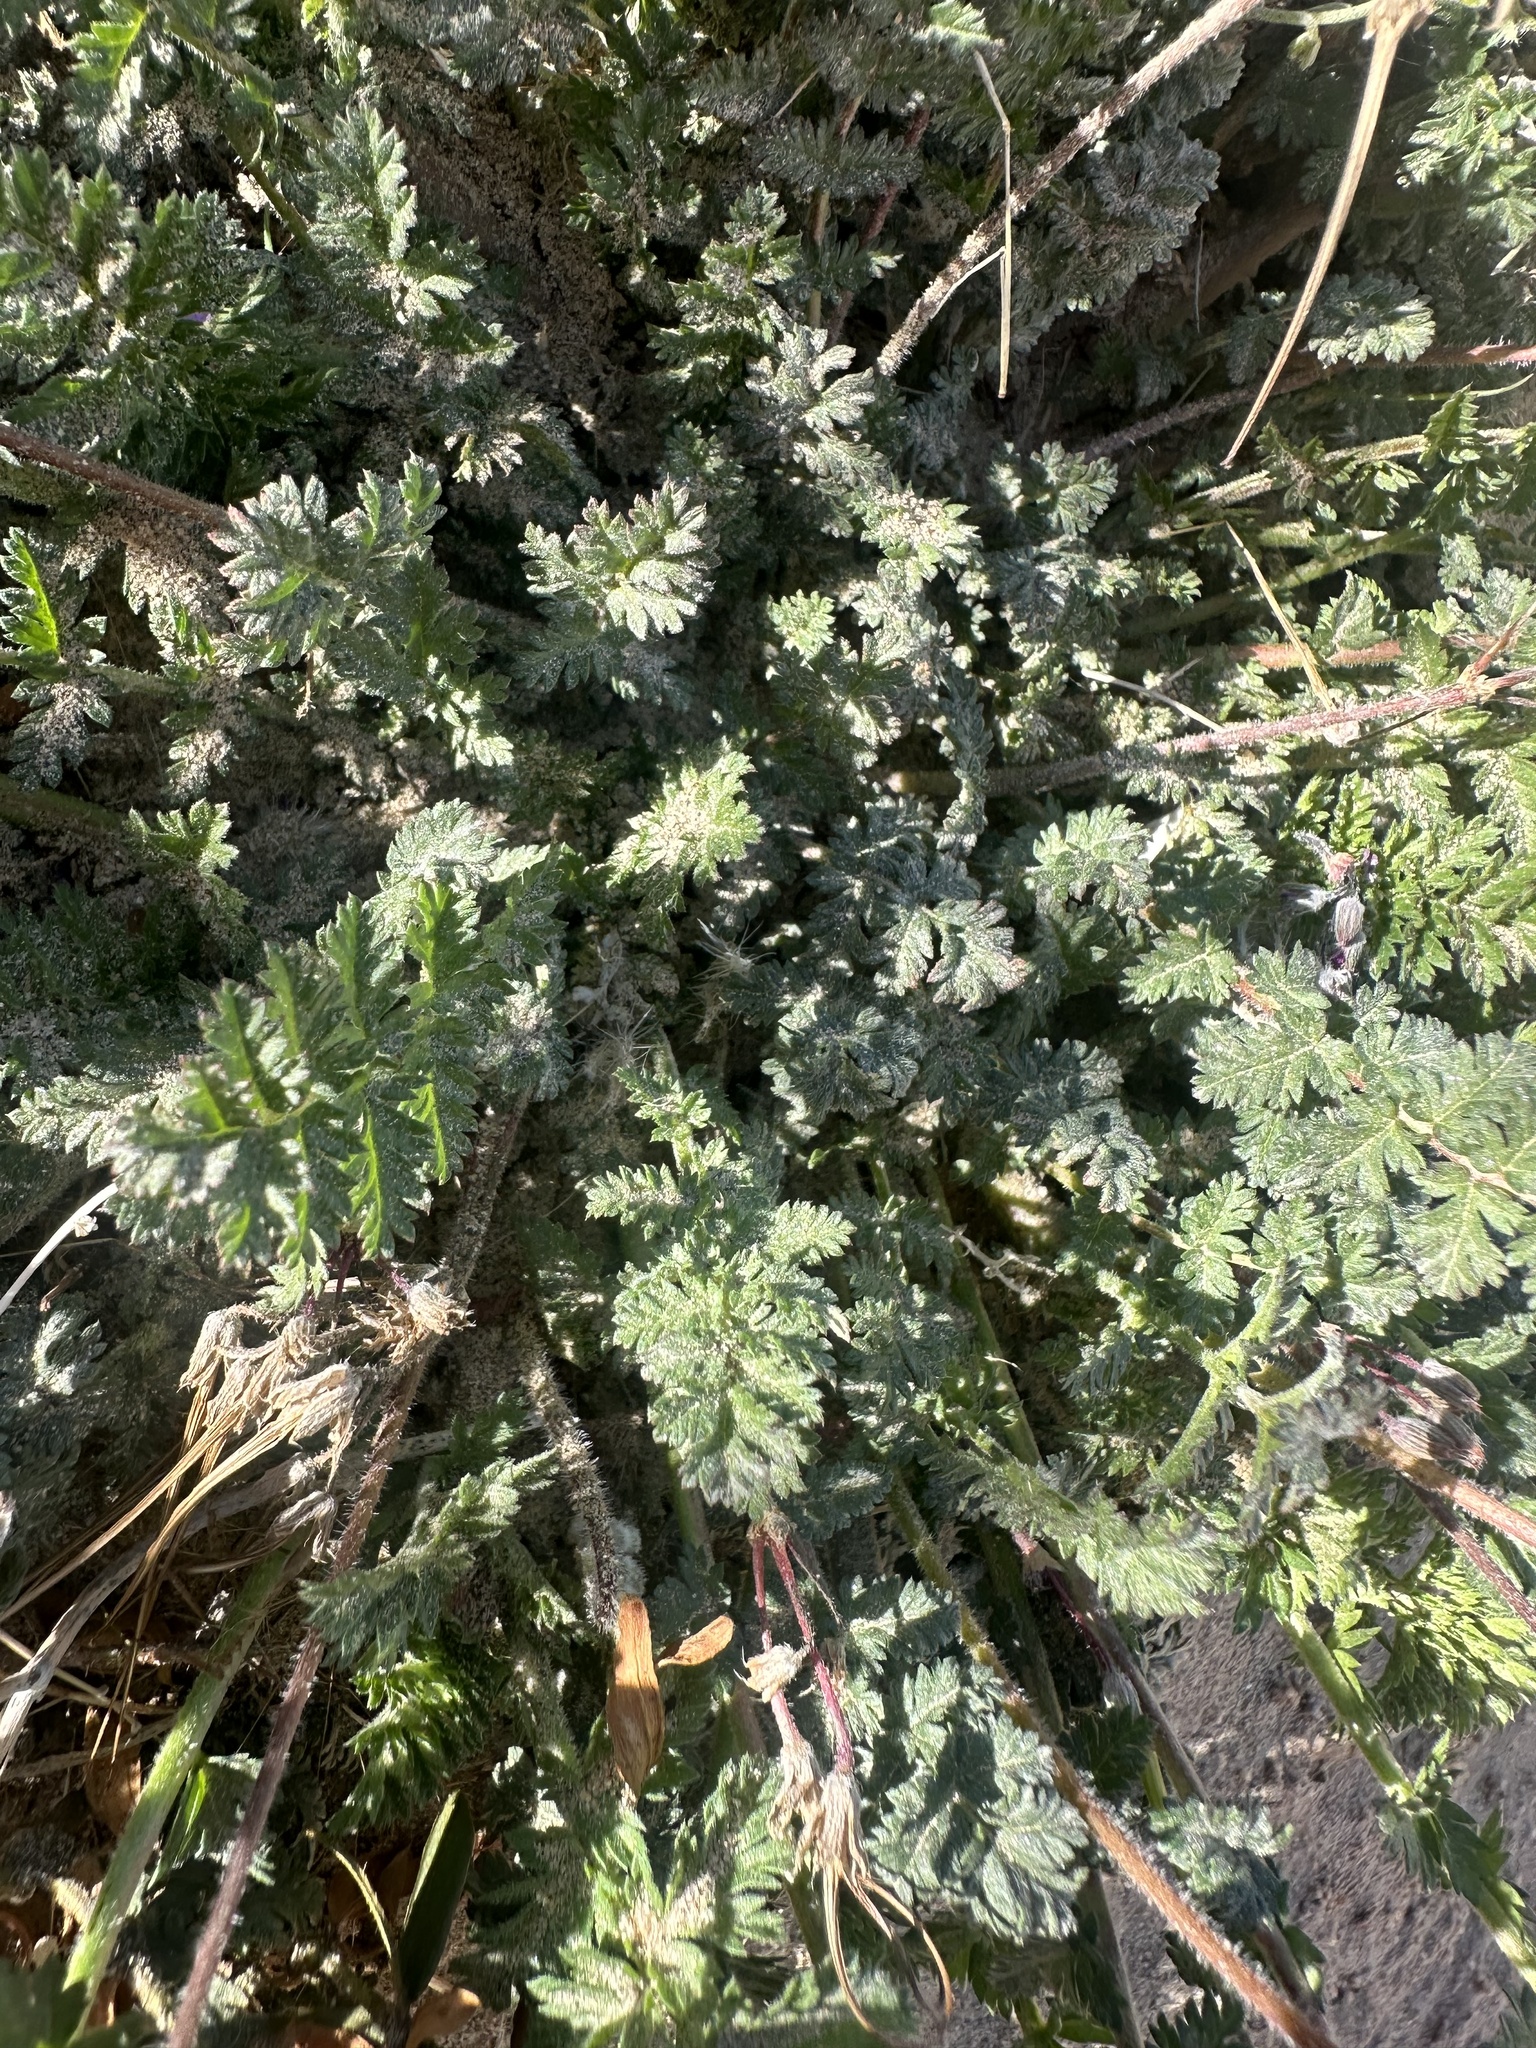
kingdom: Plantae
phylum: Tracheophyta
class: Magnoliopsida
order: Geraniales
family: Geraniaceae
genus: Erodium
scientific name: Erodium cicutarium
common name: Common stork's-bill
